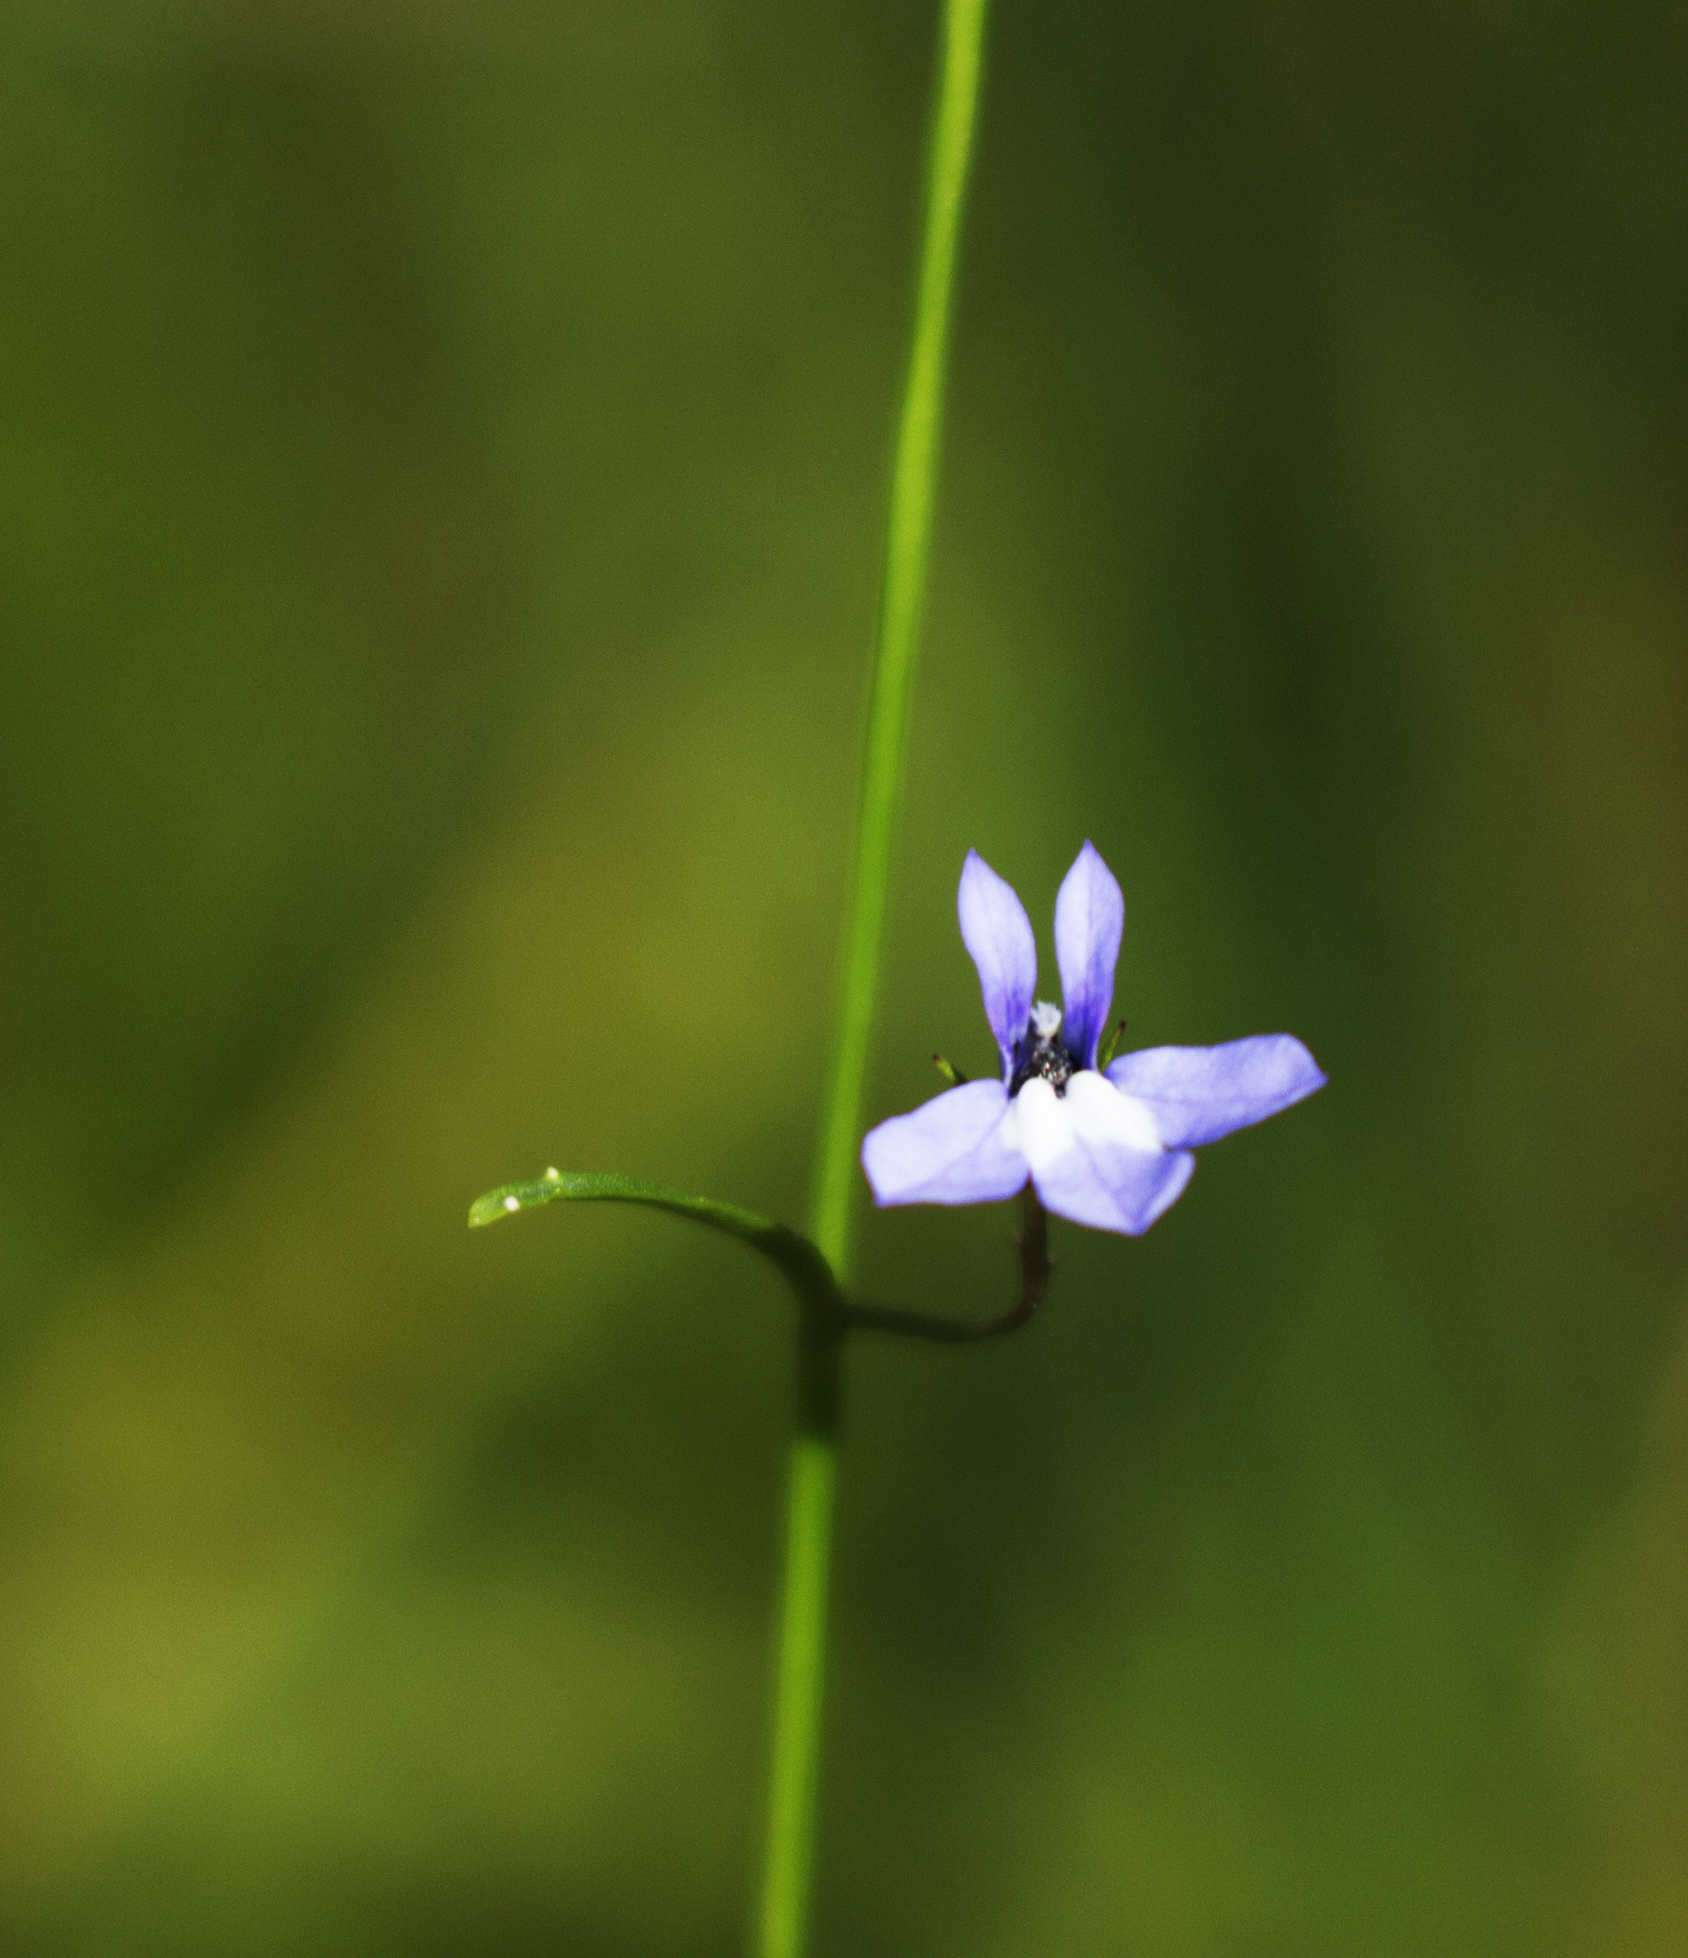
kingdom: Plantae
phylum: Tracheophyta
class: Magnoliopsida
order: Asterales
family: Campanulaceae
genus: Lobelia
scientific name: Lobelia kalmii
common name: Kalm's lobelia
